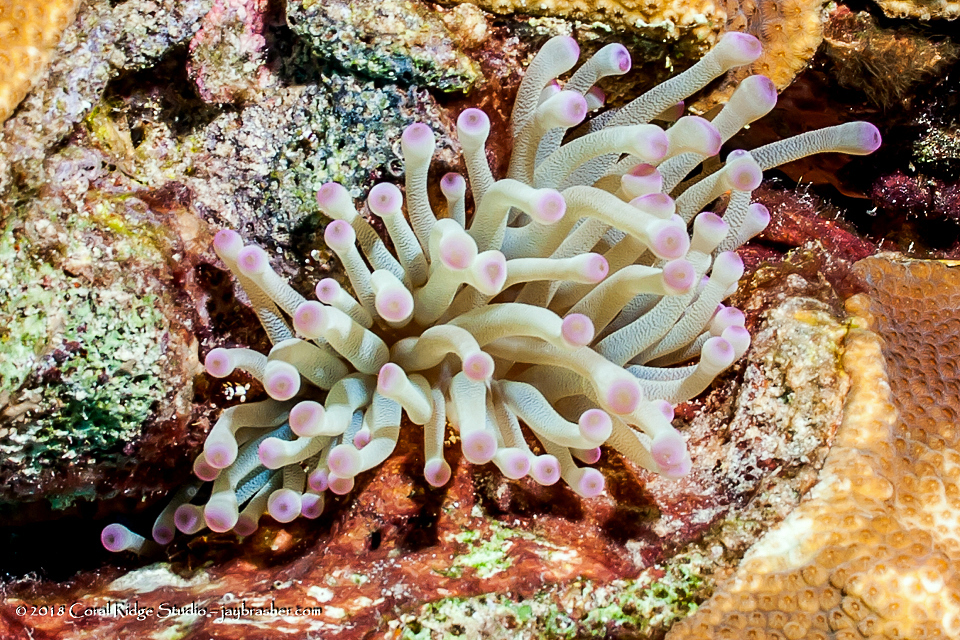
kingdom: Animalia
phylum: Cnidaria
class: Anthozoa
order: Actiniaria
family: Actiniidae
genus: Condylactis
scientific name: Condylactis gigantea
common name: Giant caribbean anemone
